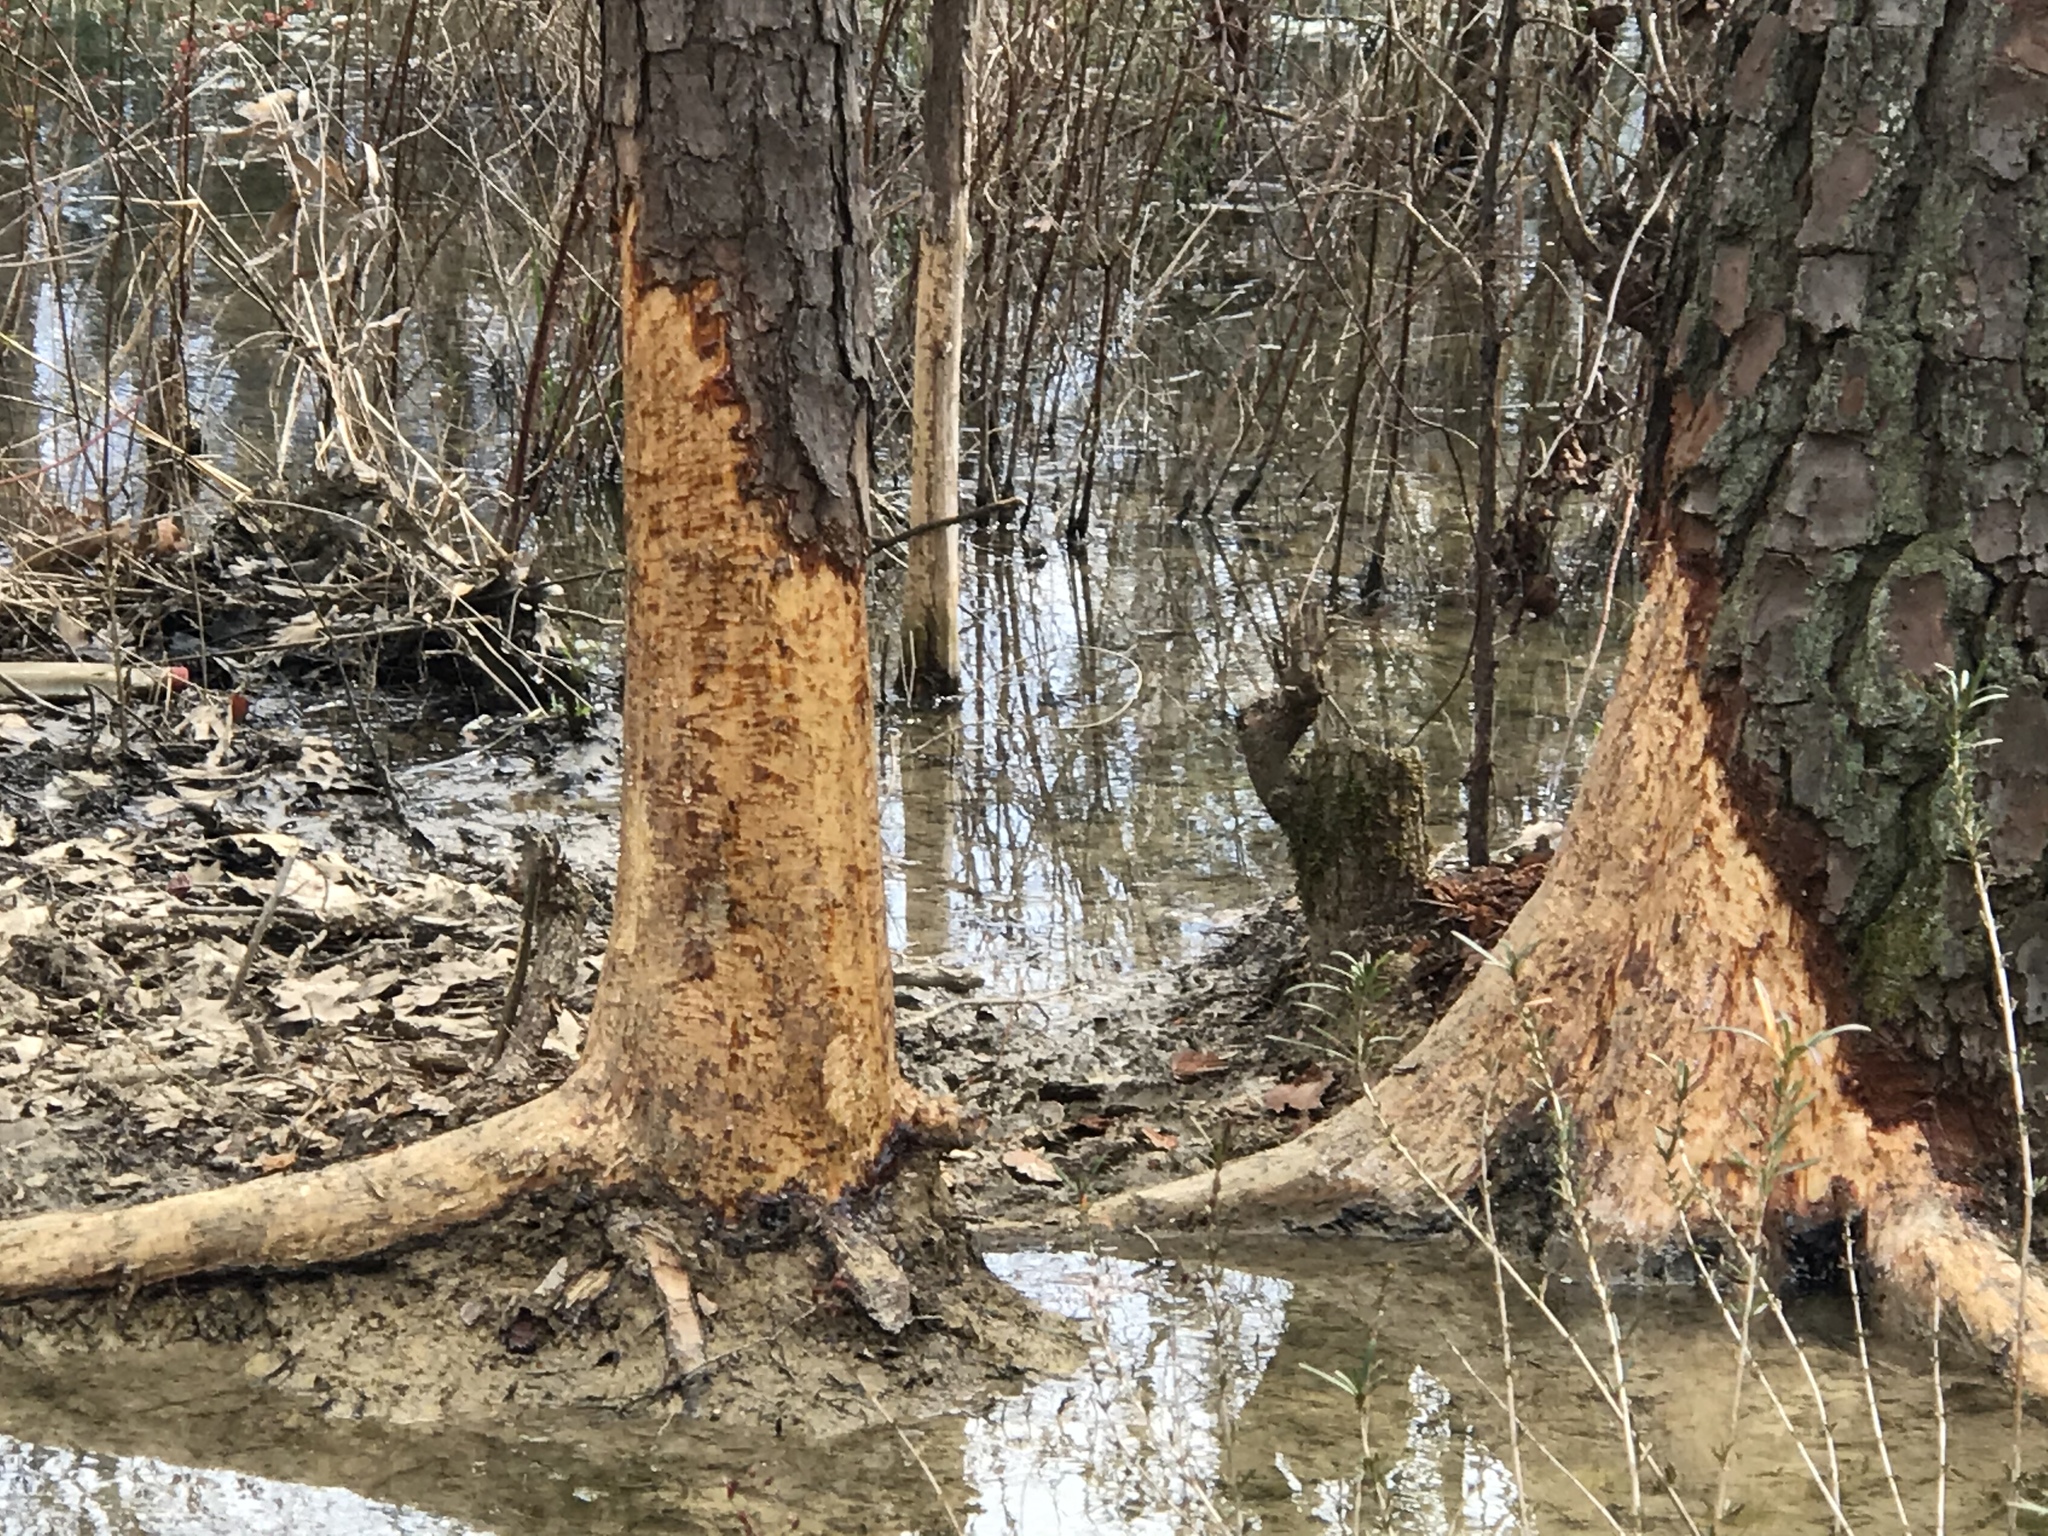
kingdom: Animalia
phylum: Chordata
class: Mammalia
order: Rodentia
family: Castoridae
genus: Castor
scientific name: Castor canadensis
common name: American beaver
